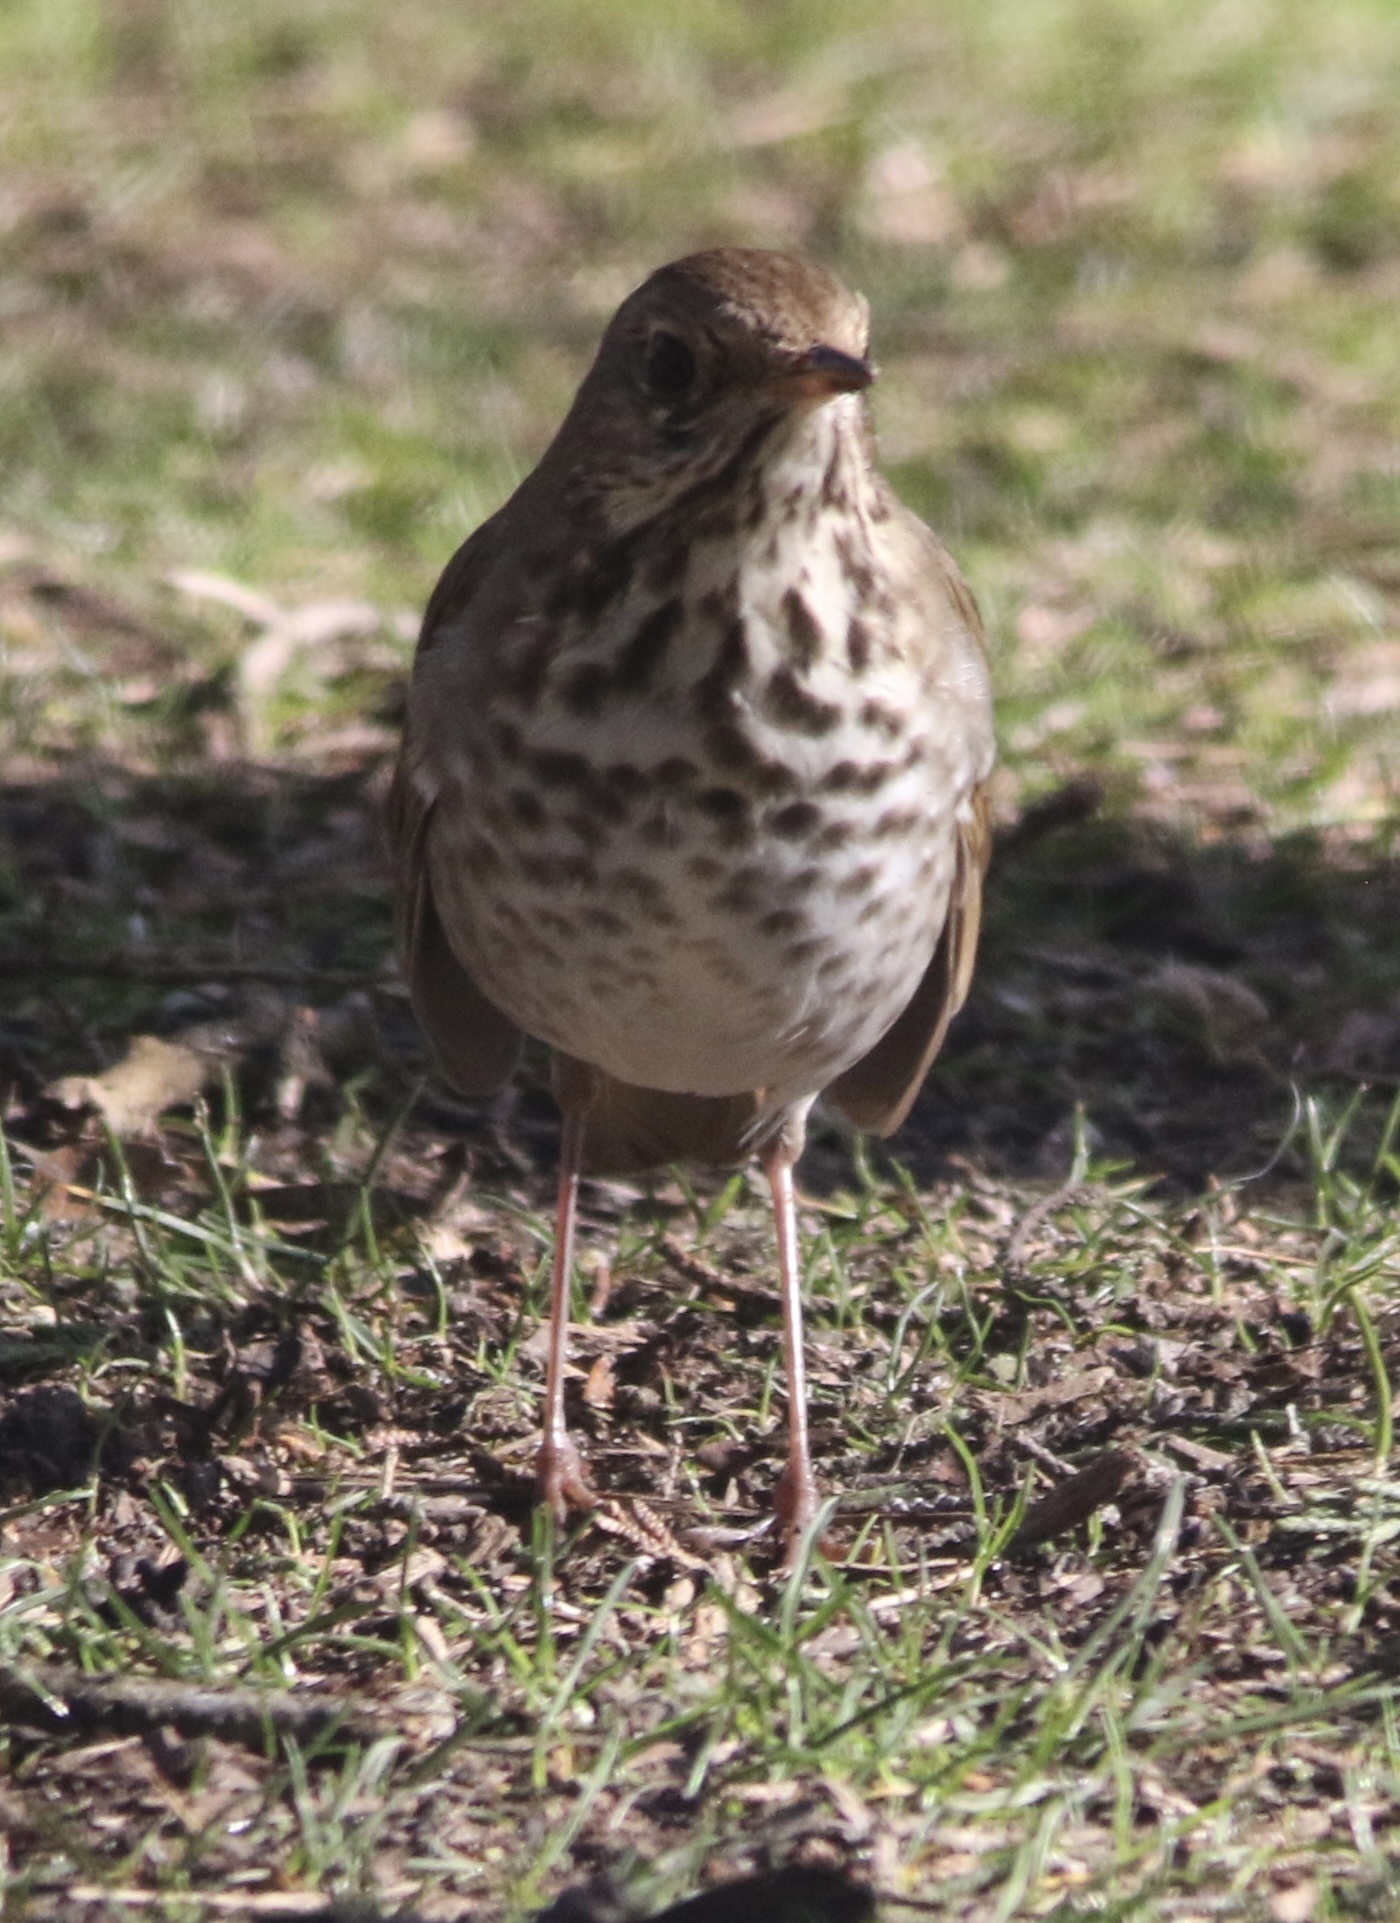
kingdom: Animalia
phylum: Chordata
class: Aves
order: Passeriformes
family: Turdidae
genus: Catharus
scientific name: Catharus guttatus
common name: Hermit thrush
